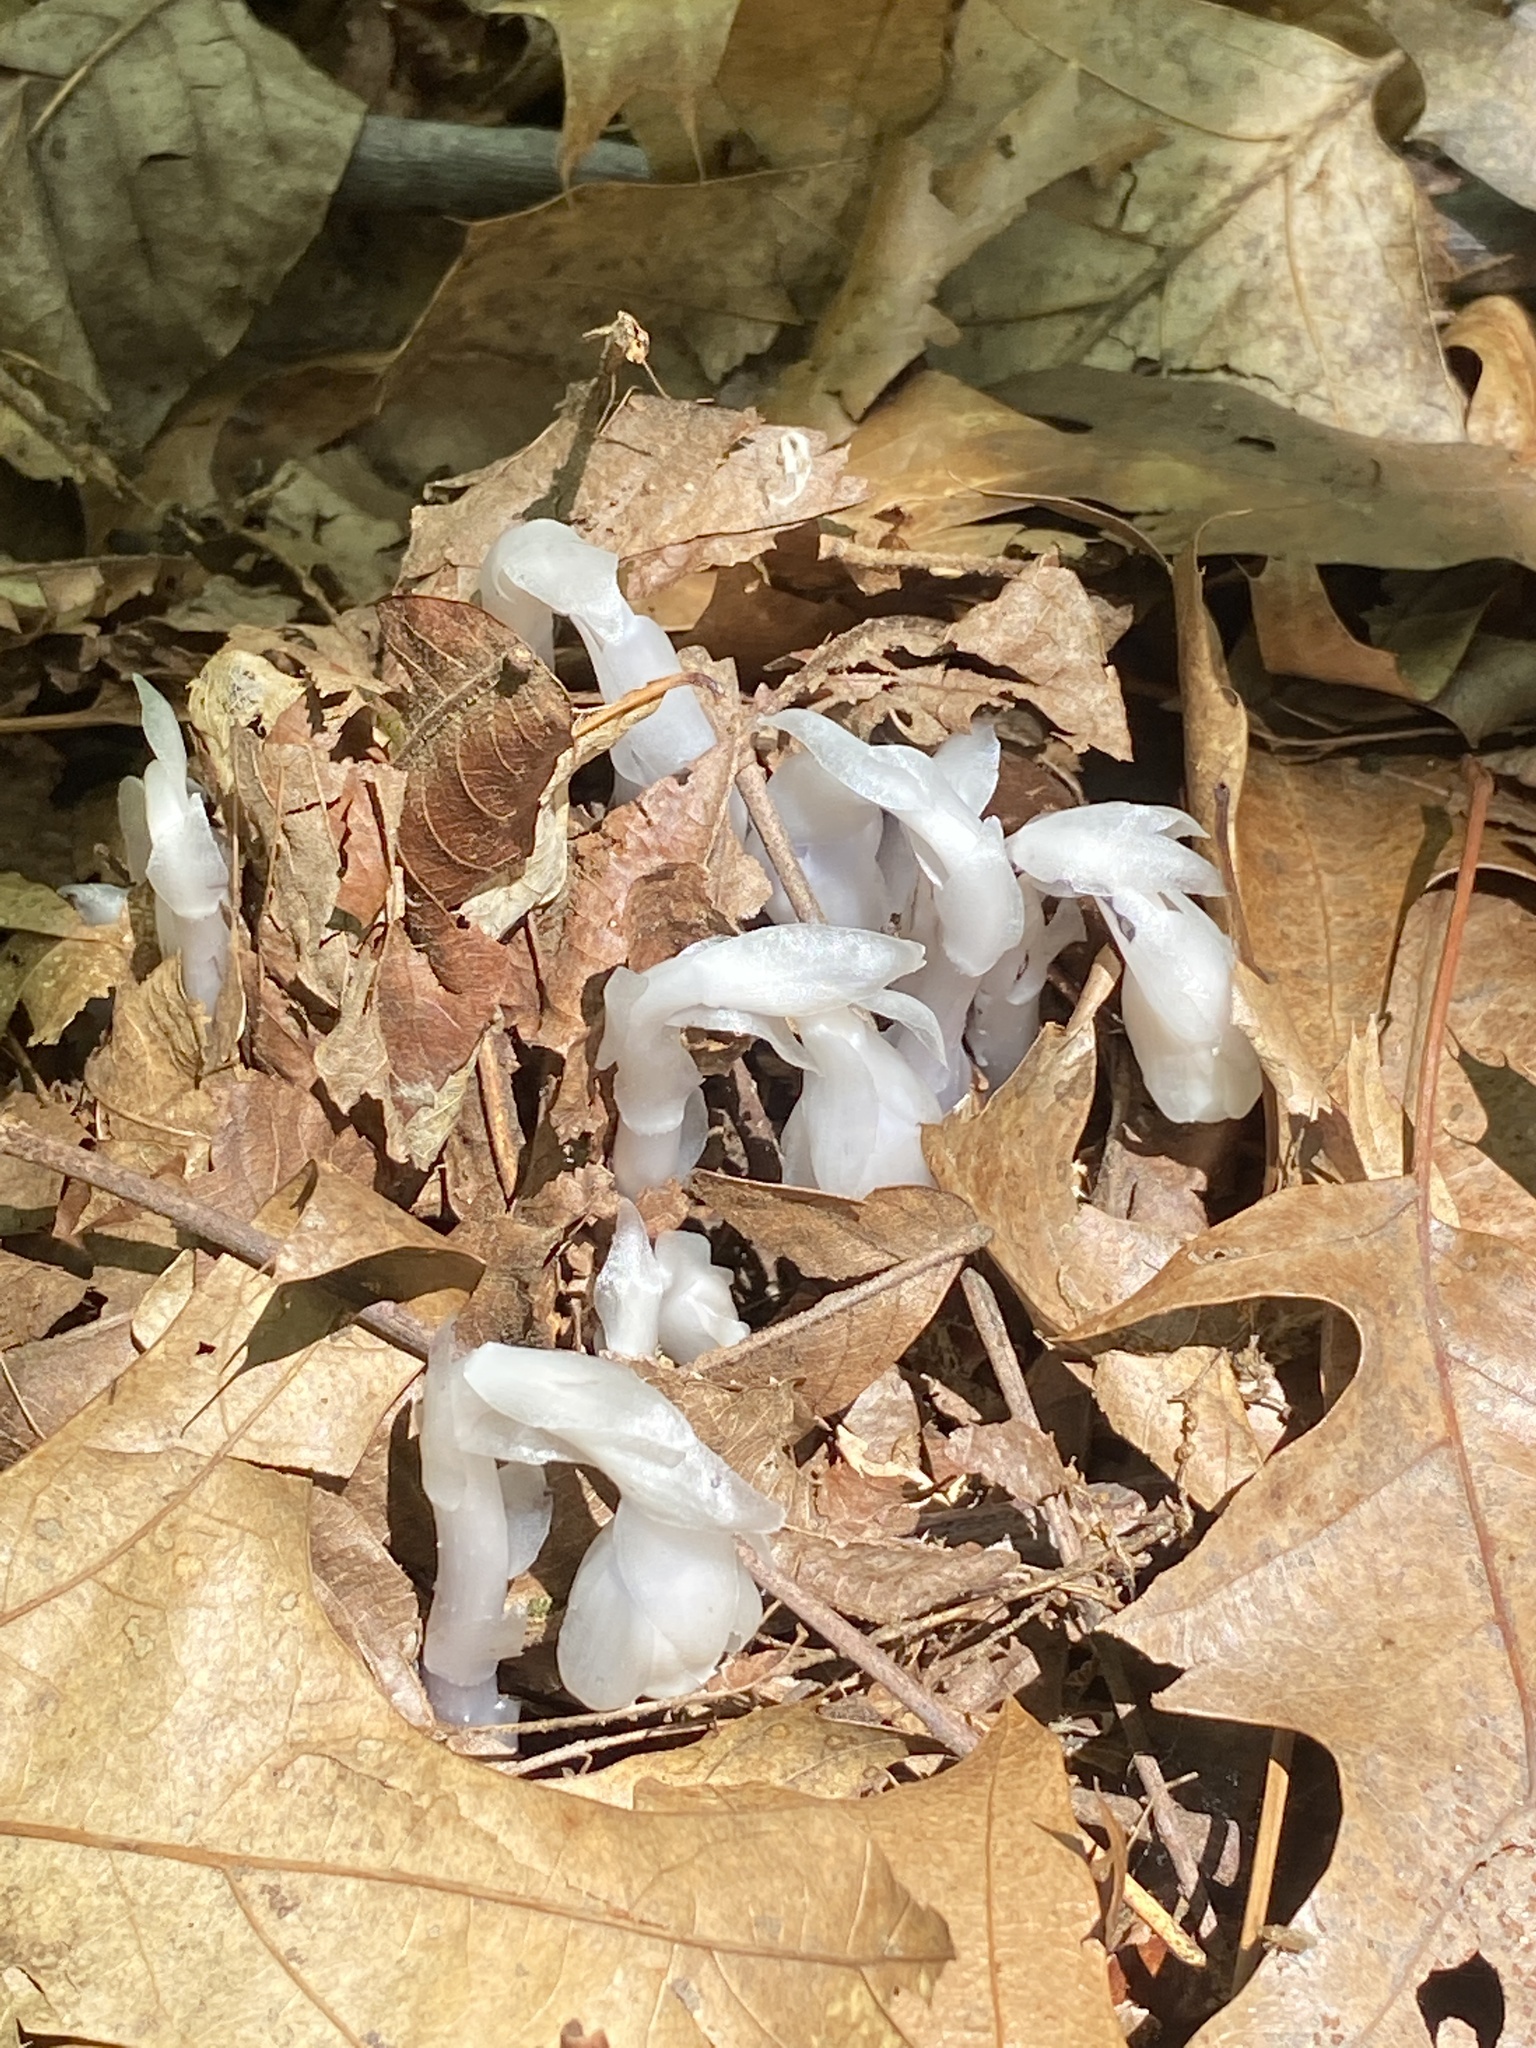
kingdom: Plantae
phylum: Tracheophyta
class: Magnoliopsida
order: Ericales
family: Ericaceae
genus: Monotropa
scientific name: Monotropa uniflora
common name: Convulsion root
